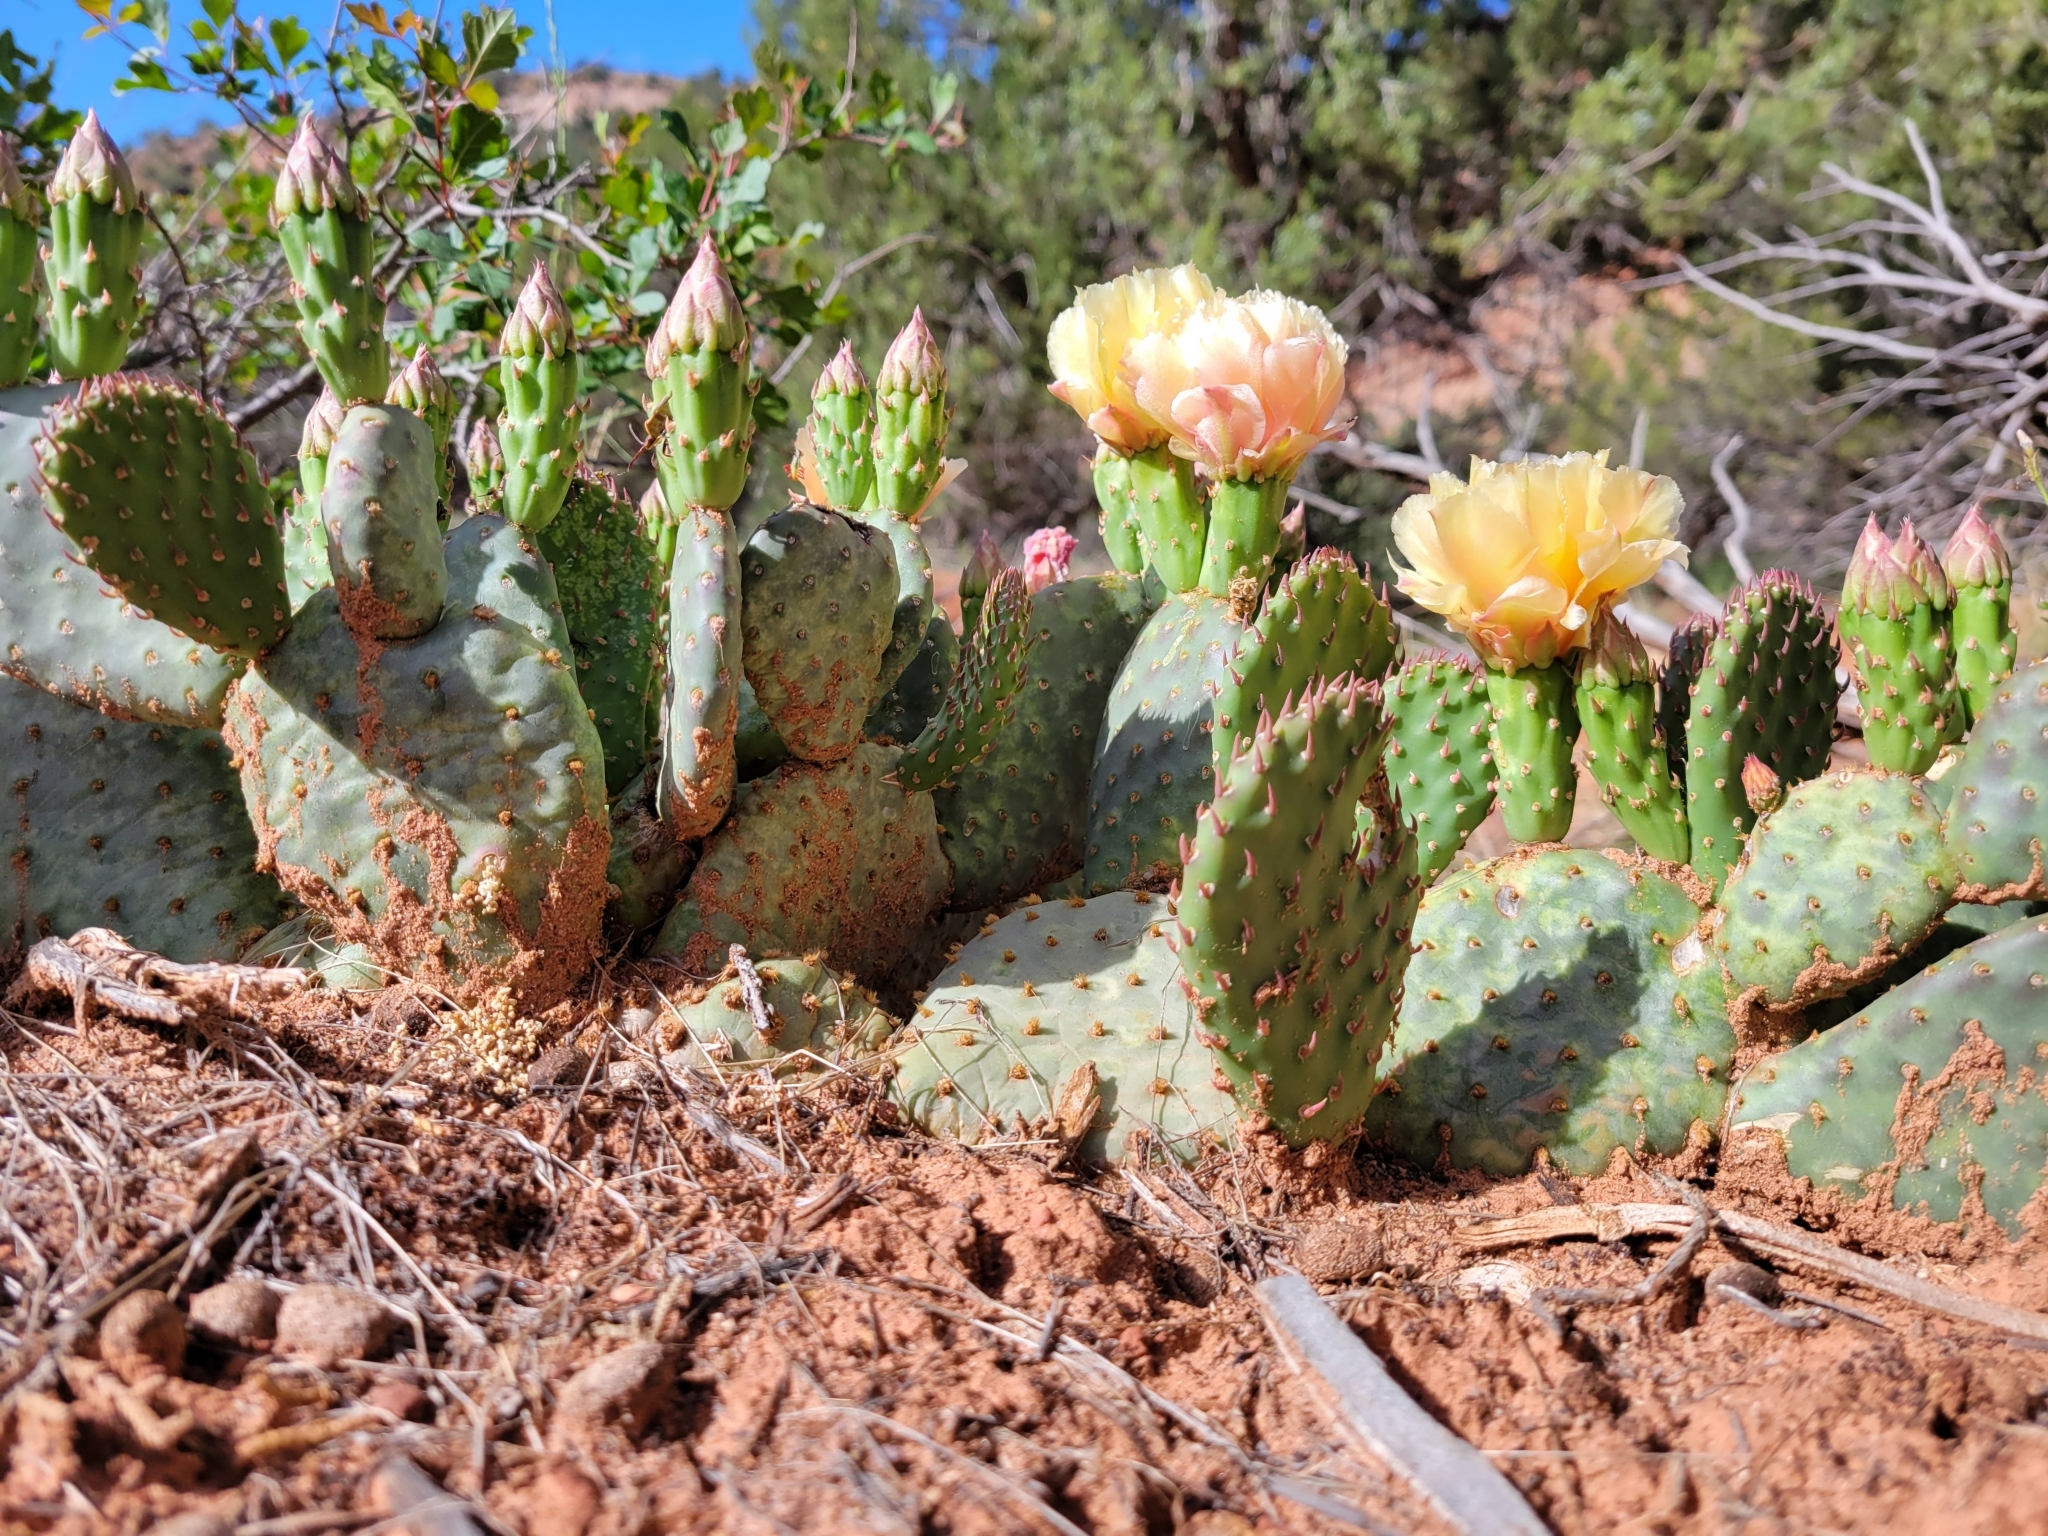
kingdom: Plantae
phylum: Tracheophyta
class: Magnoliopsida
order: Caryophyllales
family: Cactaceae
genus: Opuntia
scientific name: Opuntia aurea
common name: Golden prickly-pear
